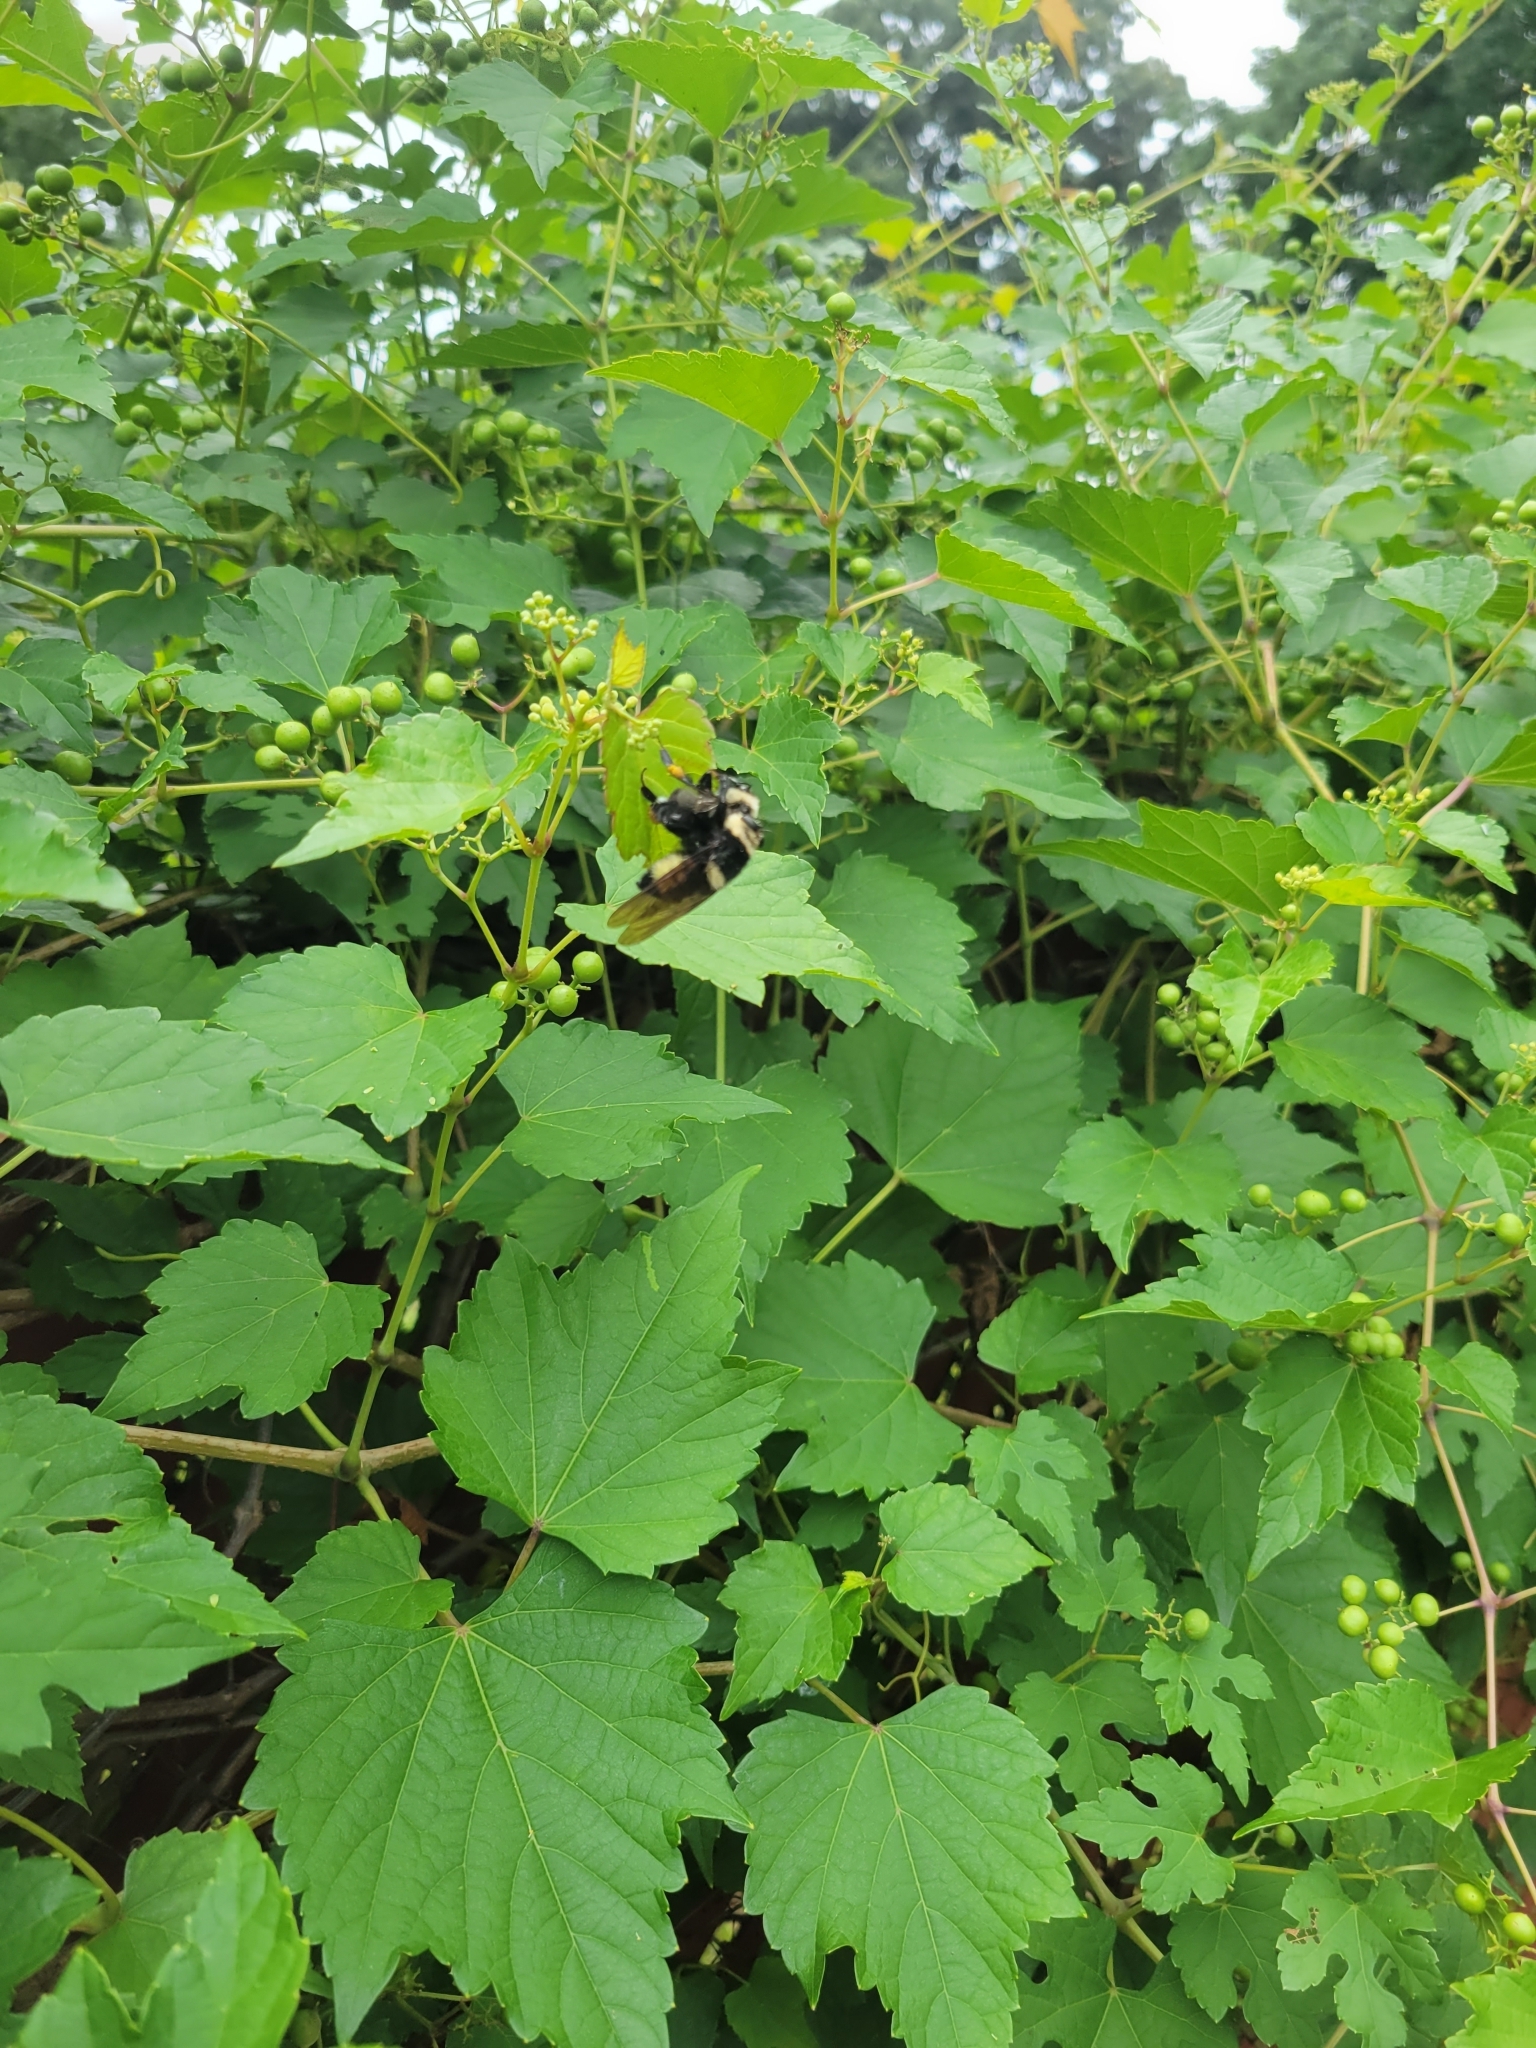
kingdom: Animalia
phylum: Arthropoda
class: Insecta
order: Diptera
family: Asilidae
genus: Mallophora
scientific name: Mallophora orcina
